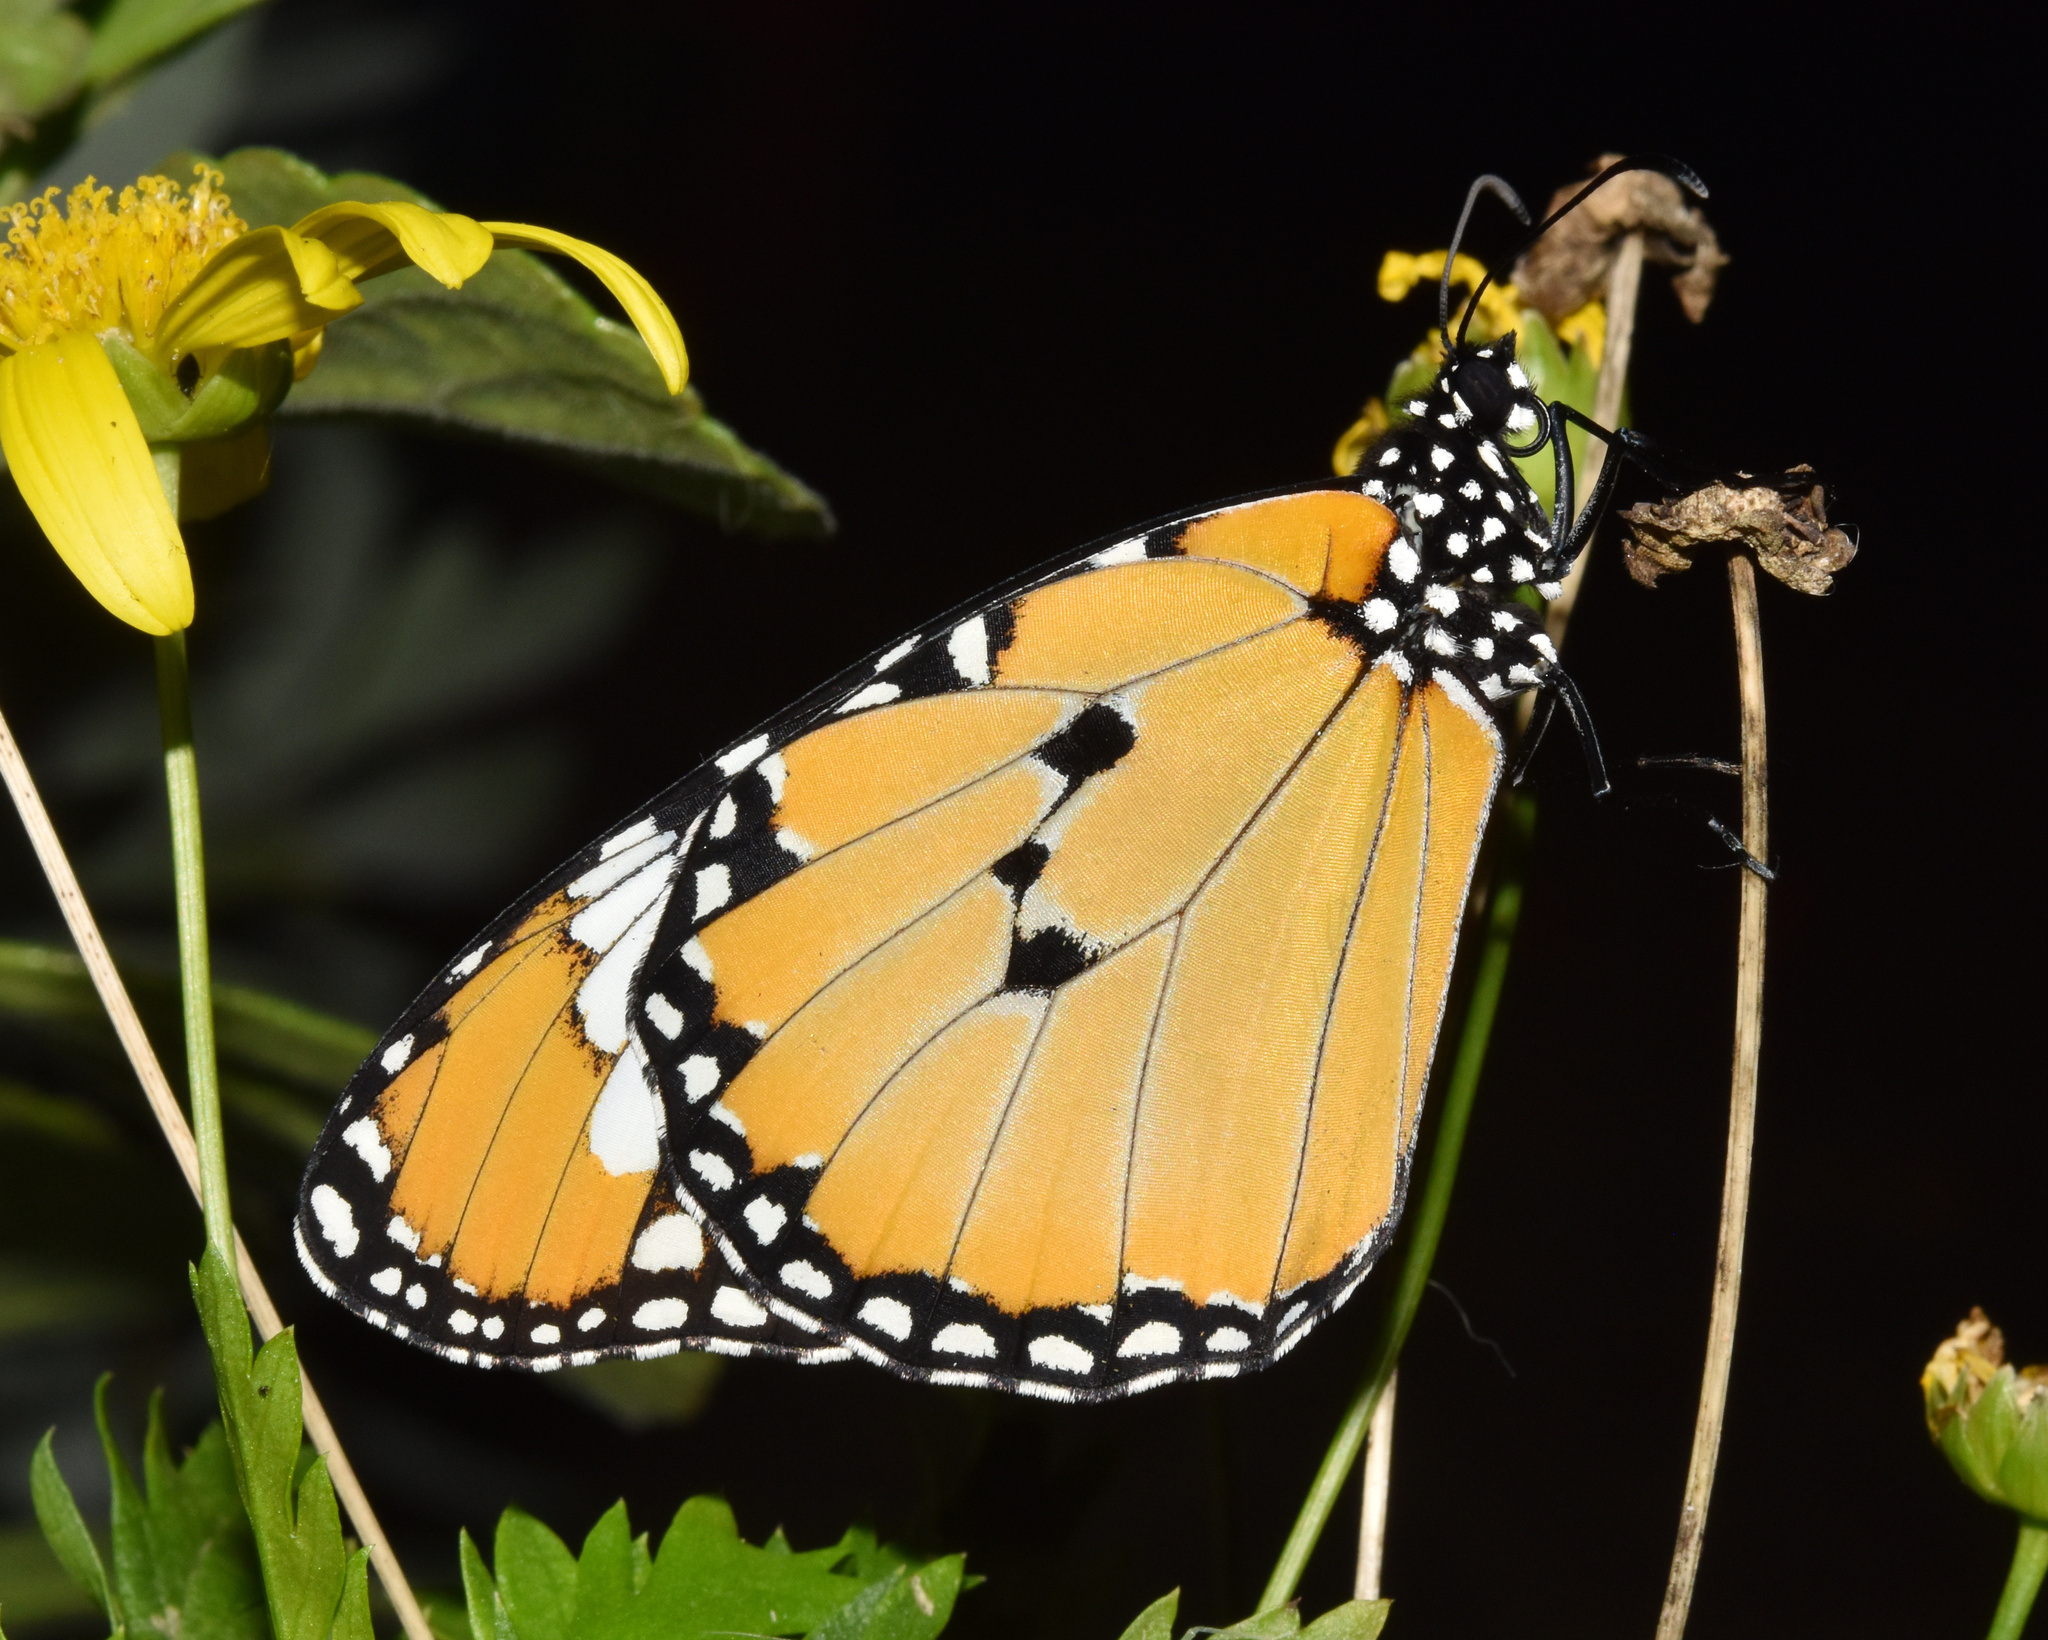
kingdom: Animalia
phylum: Arthropoda
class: Insecta
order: Lepidoptera
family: Nymphalidae
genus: Danaus
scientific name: Danaus chrysippus
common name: Plain tiger
